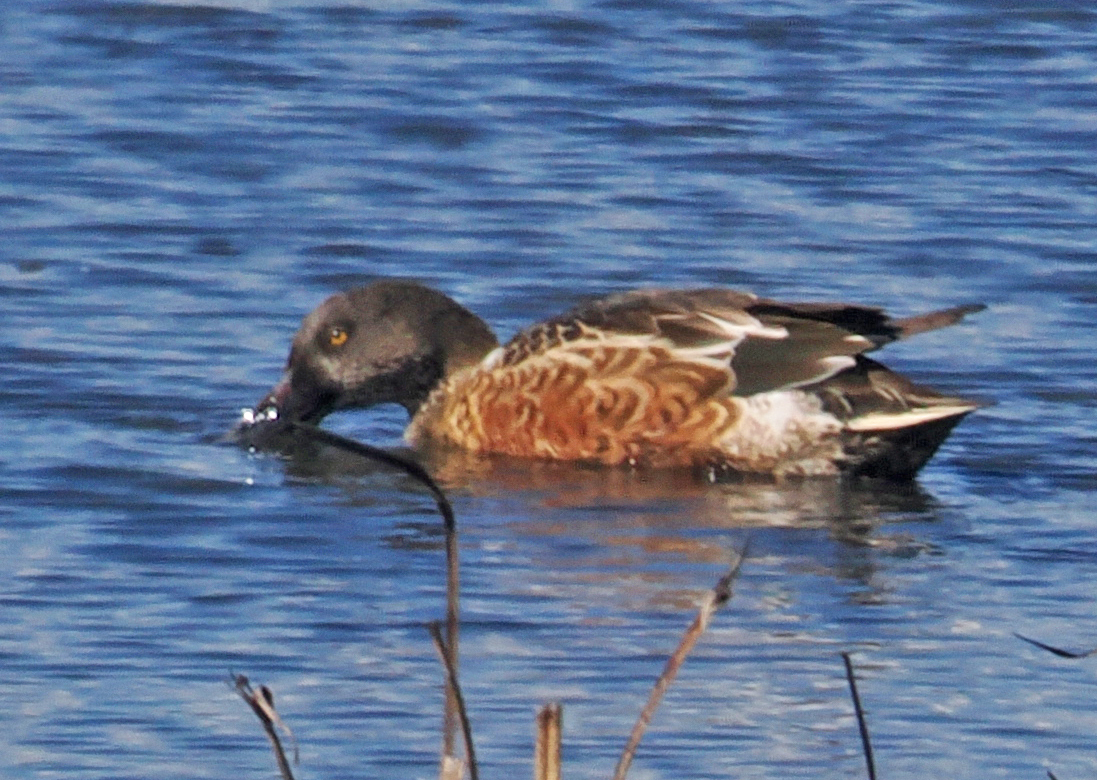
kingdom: Animalia
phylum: Chordata
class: Aves
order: Anseriformes
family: Anatidae
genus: Spatula
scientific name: Spatula clypeata
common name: Northern shoveler
